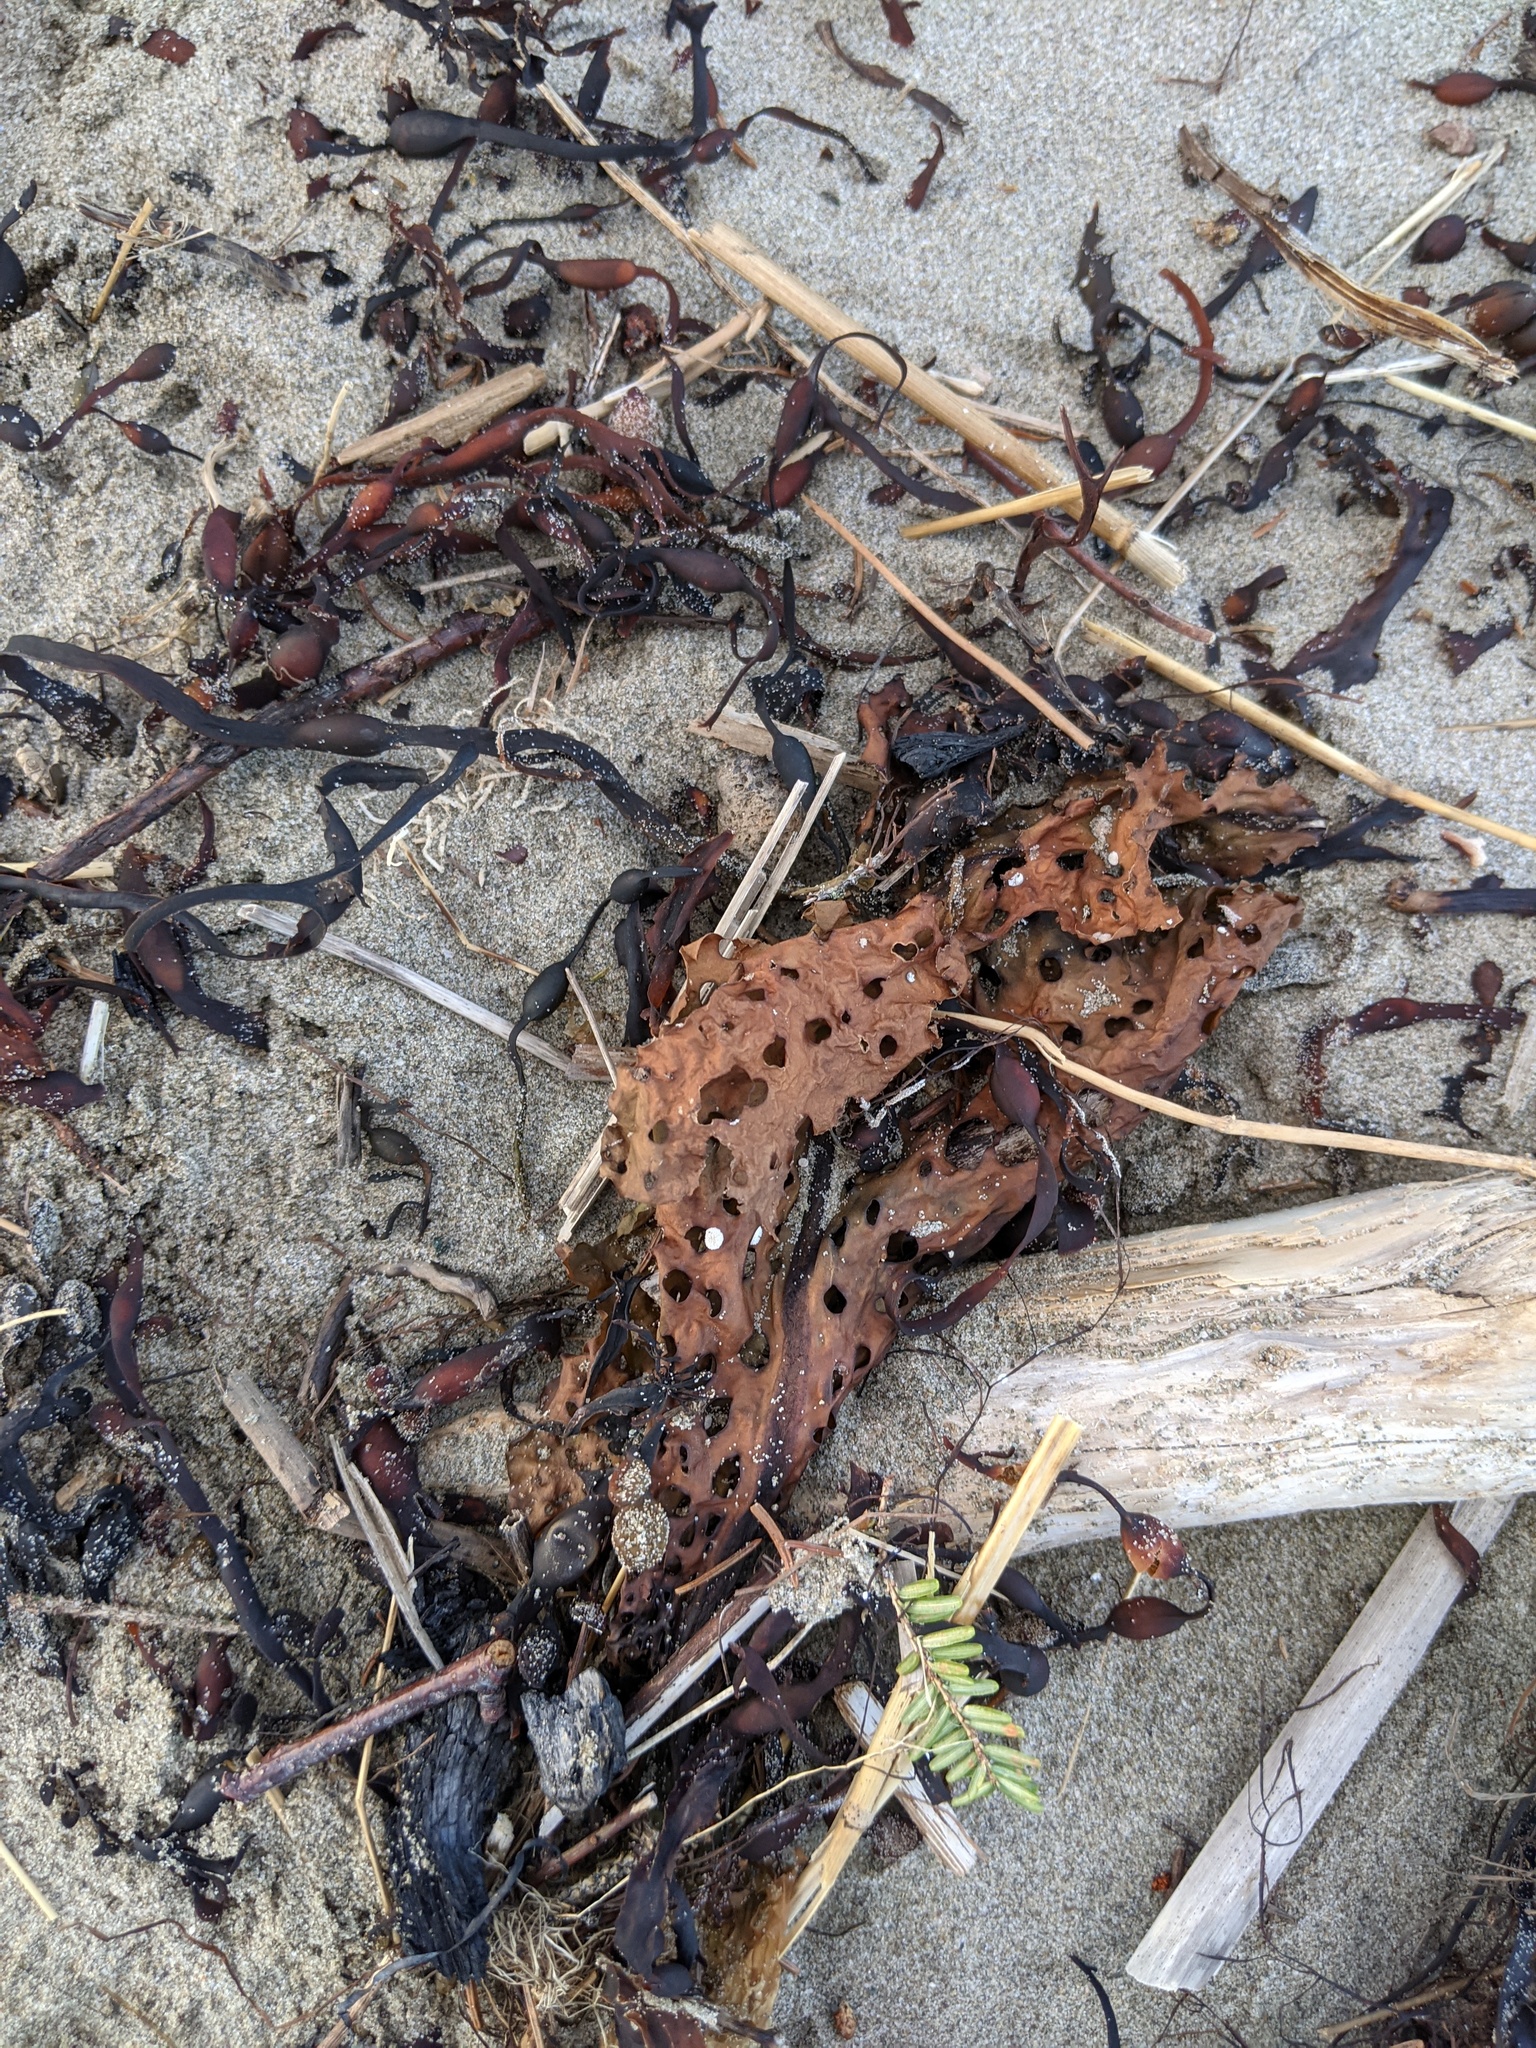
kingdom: Chromista
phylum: Ochrophyta
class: Phaeophyceae
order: Laminariales
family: Costariaceae
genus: Agarum
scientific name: Agarum clathratum
